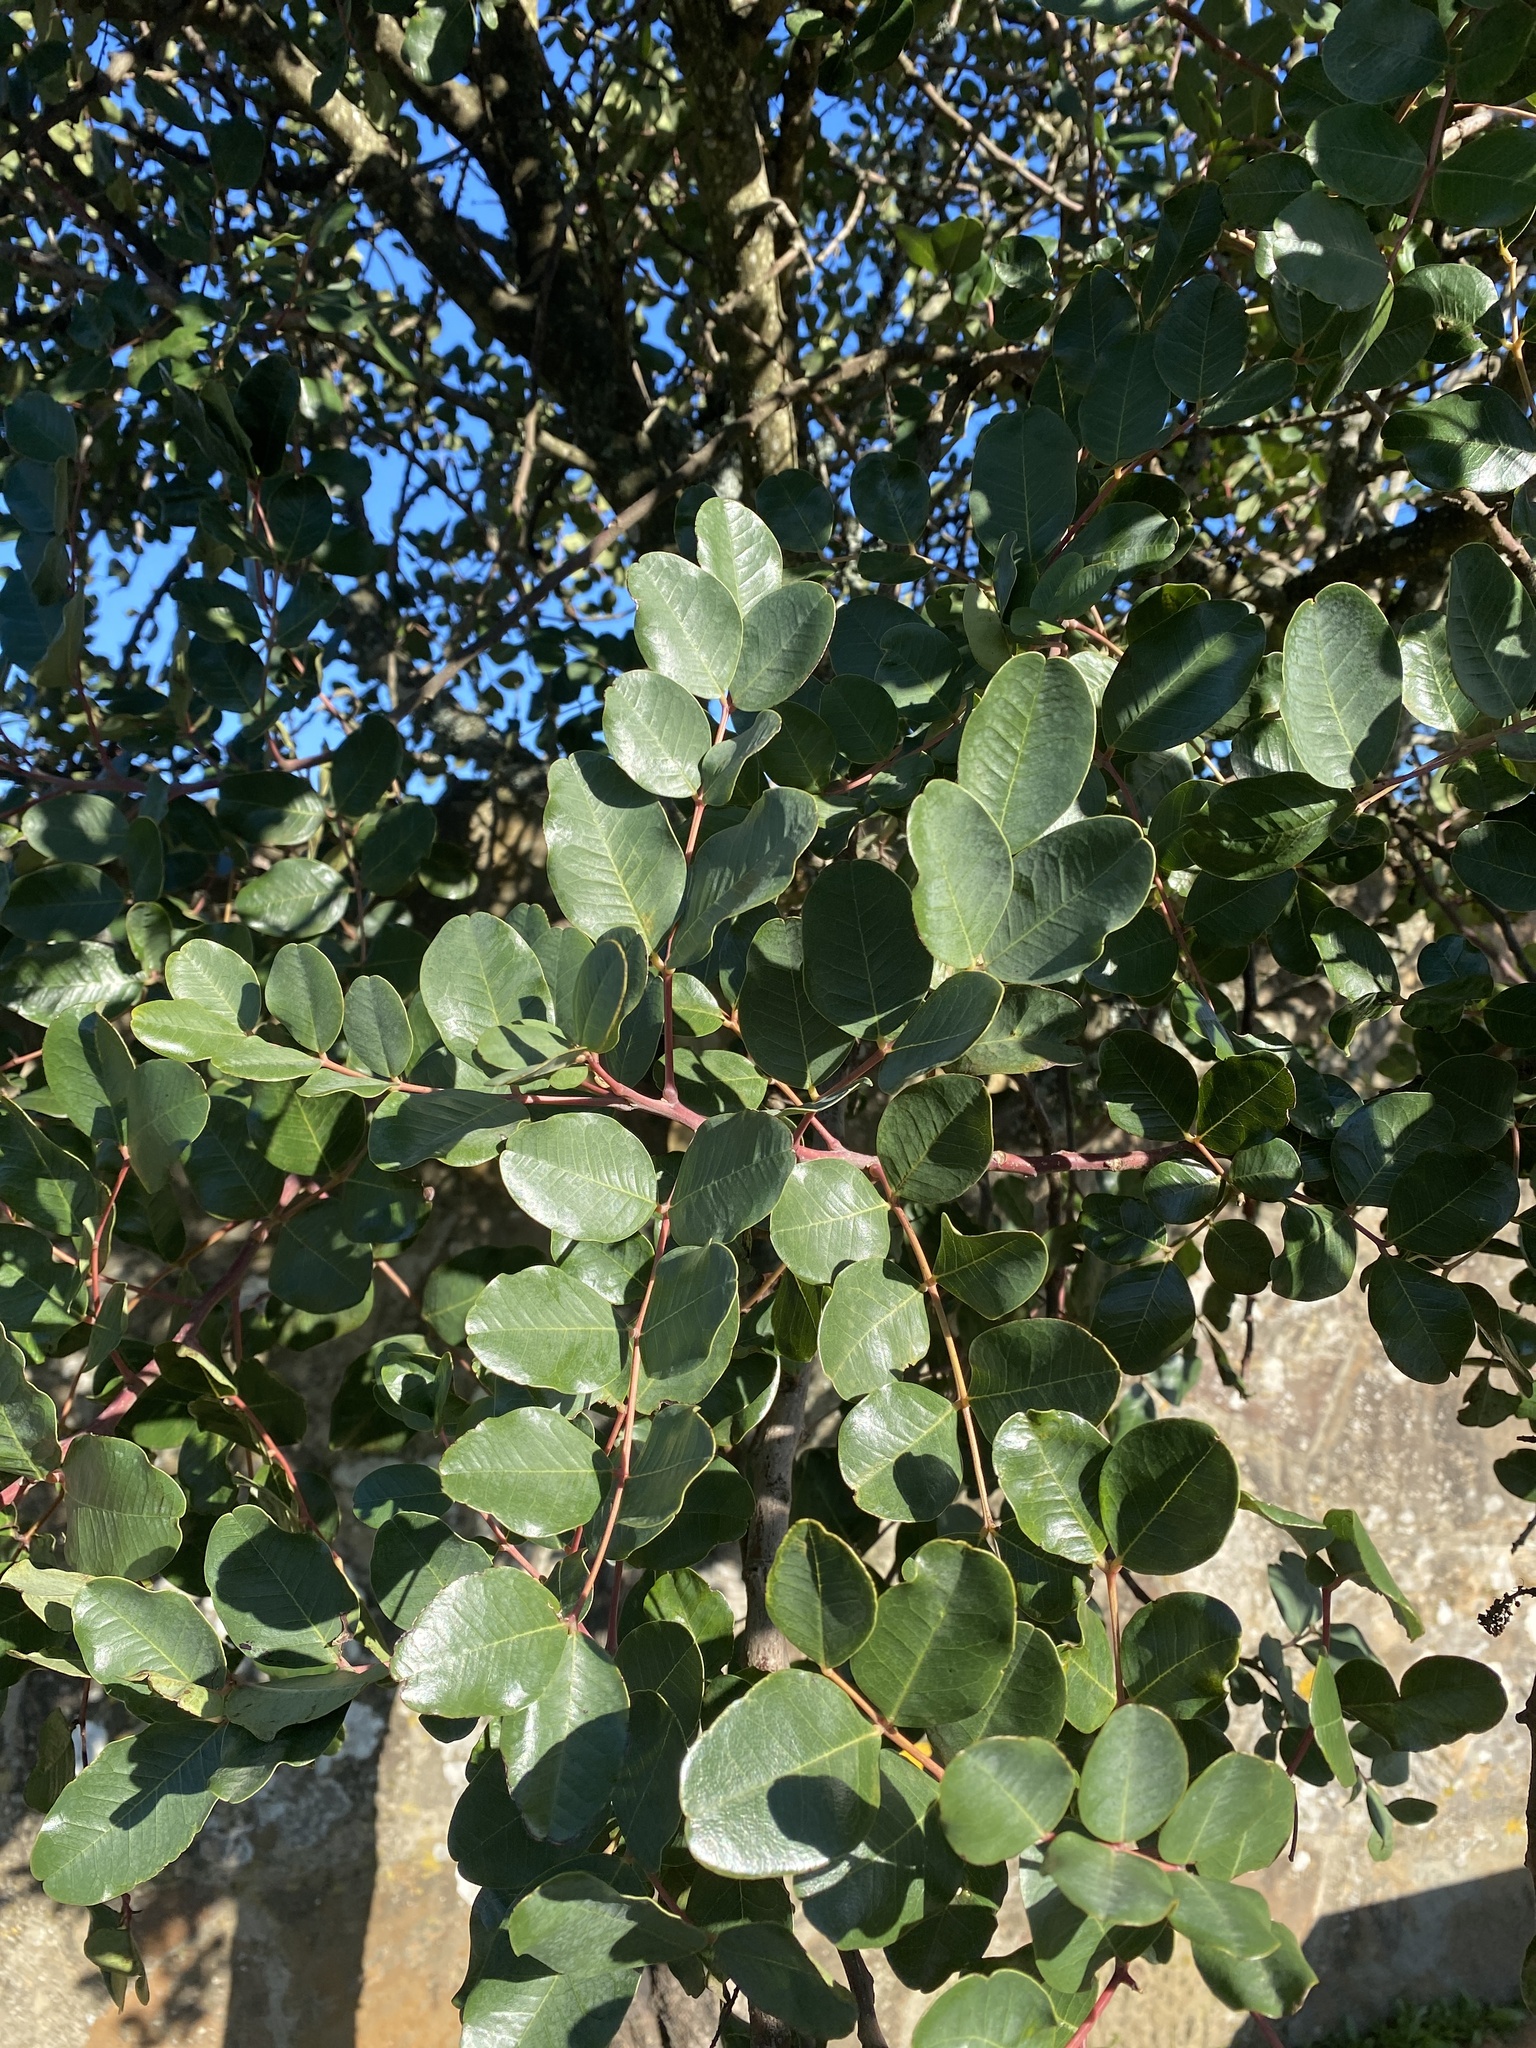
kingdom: Plantae
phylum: Tracheophyta
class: Magnoliopsida
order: Fabales
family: Fabaceae
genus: Ceratonia
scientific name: Ceratonia siliqua
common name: Carob
